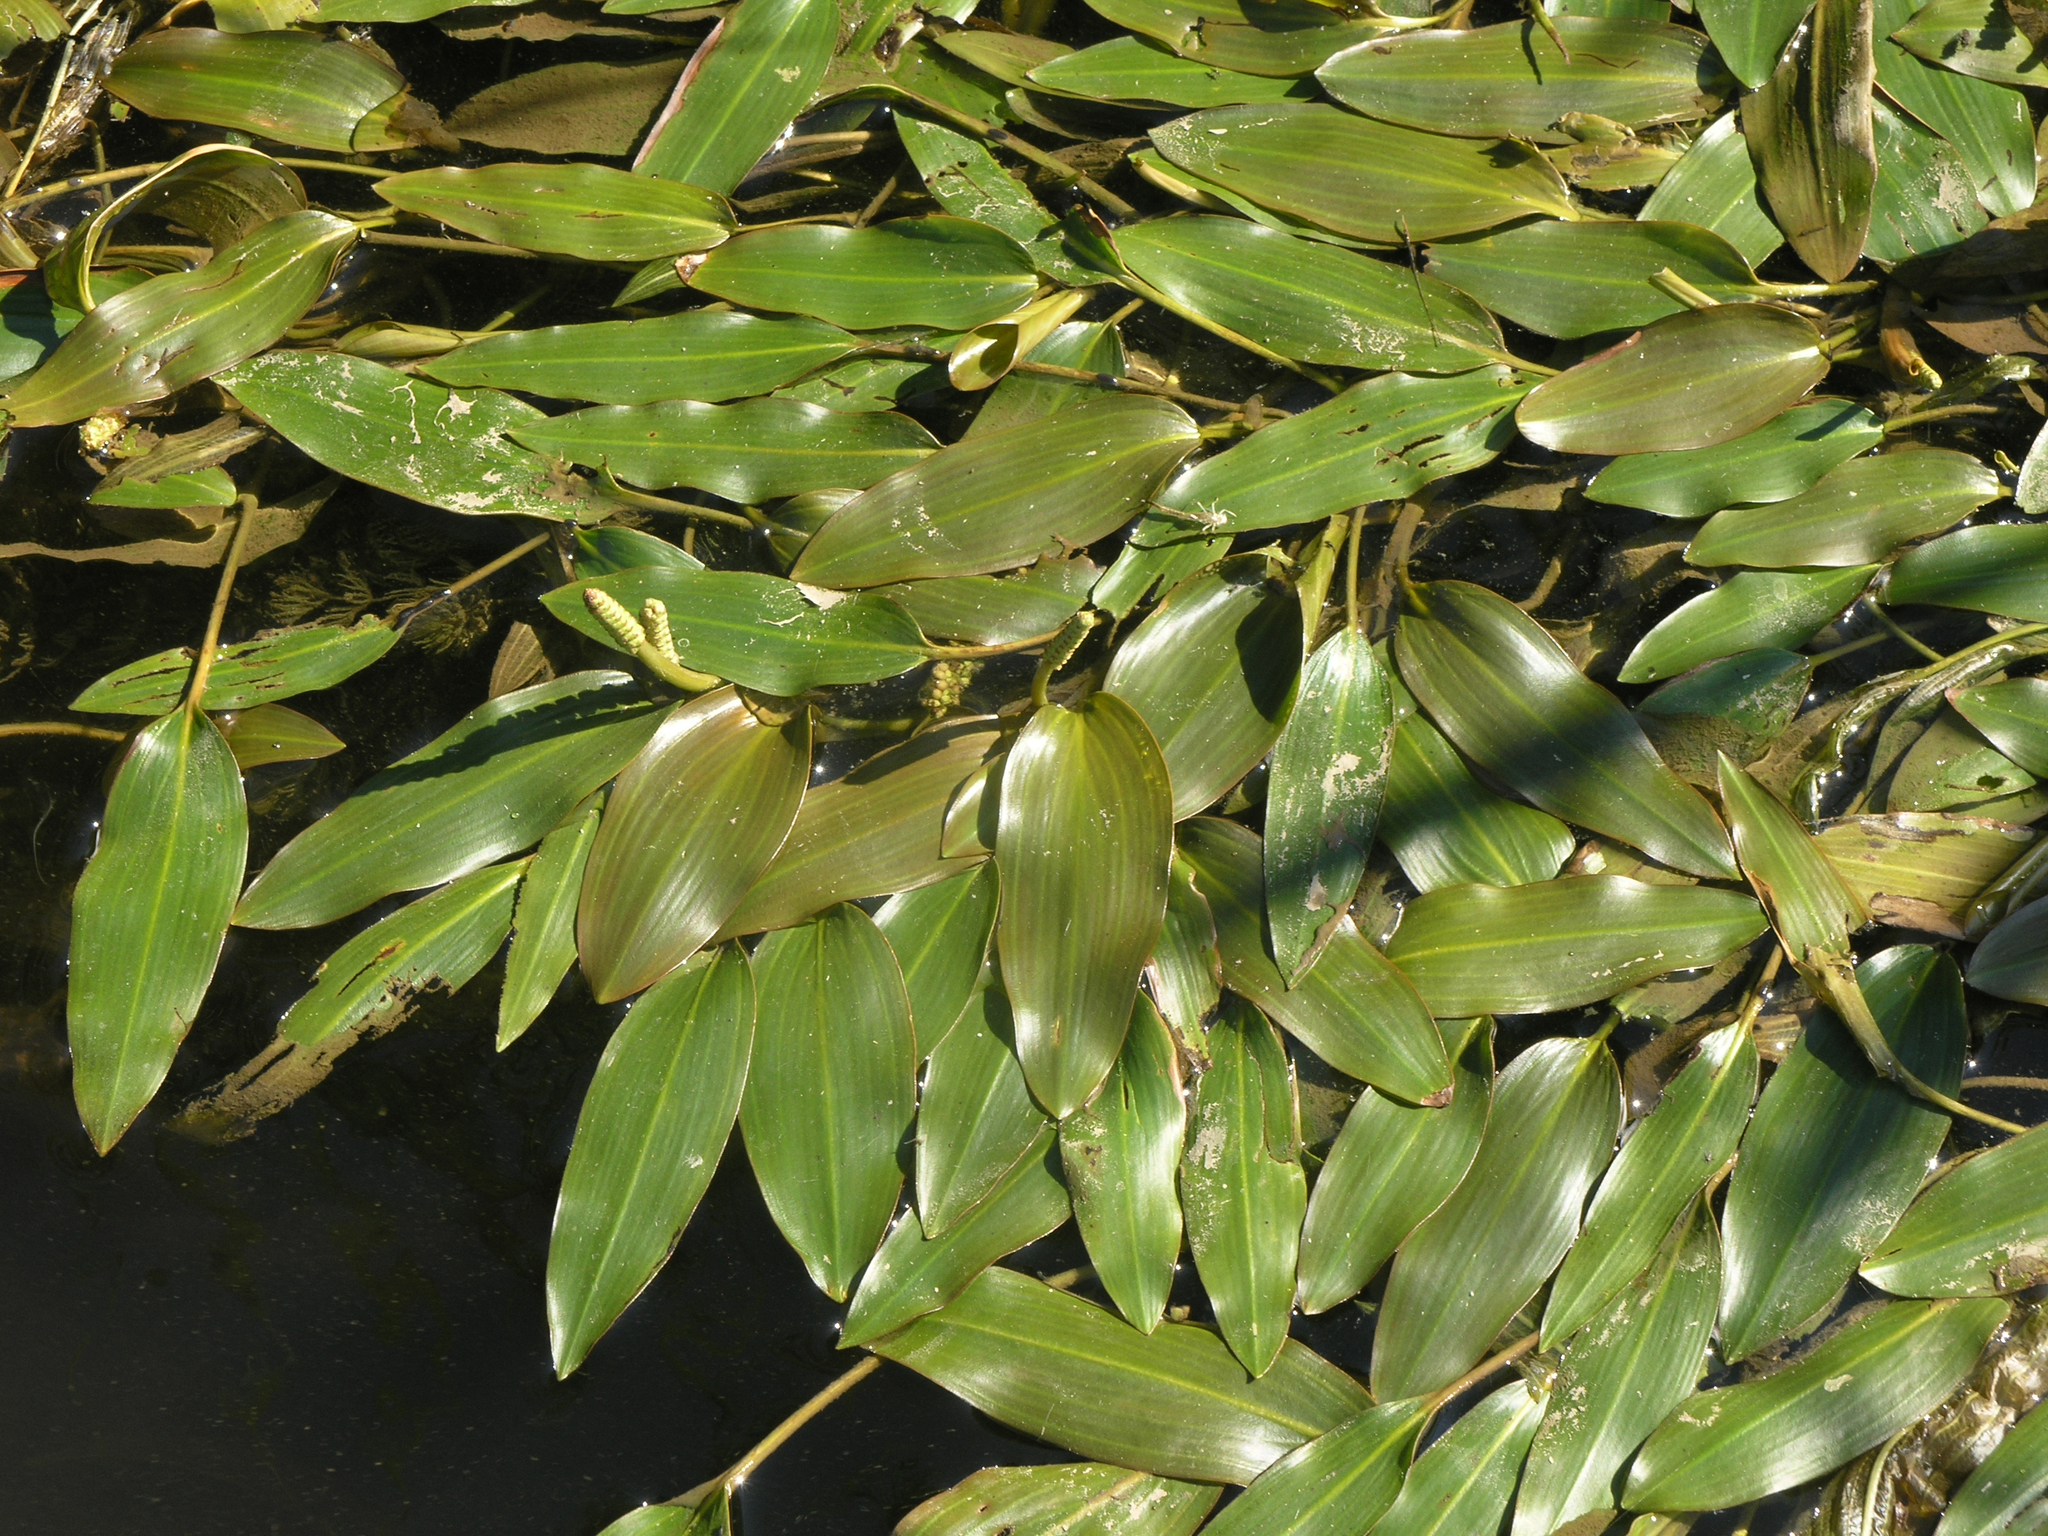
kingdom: Plantae
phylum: Tracheophyta
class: Liliopsida
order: Alismatales
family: Potamogetonaceae
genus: Potamogeton
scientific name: Potamogeton nodosus
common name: Loddon pondweed
